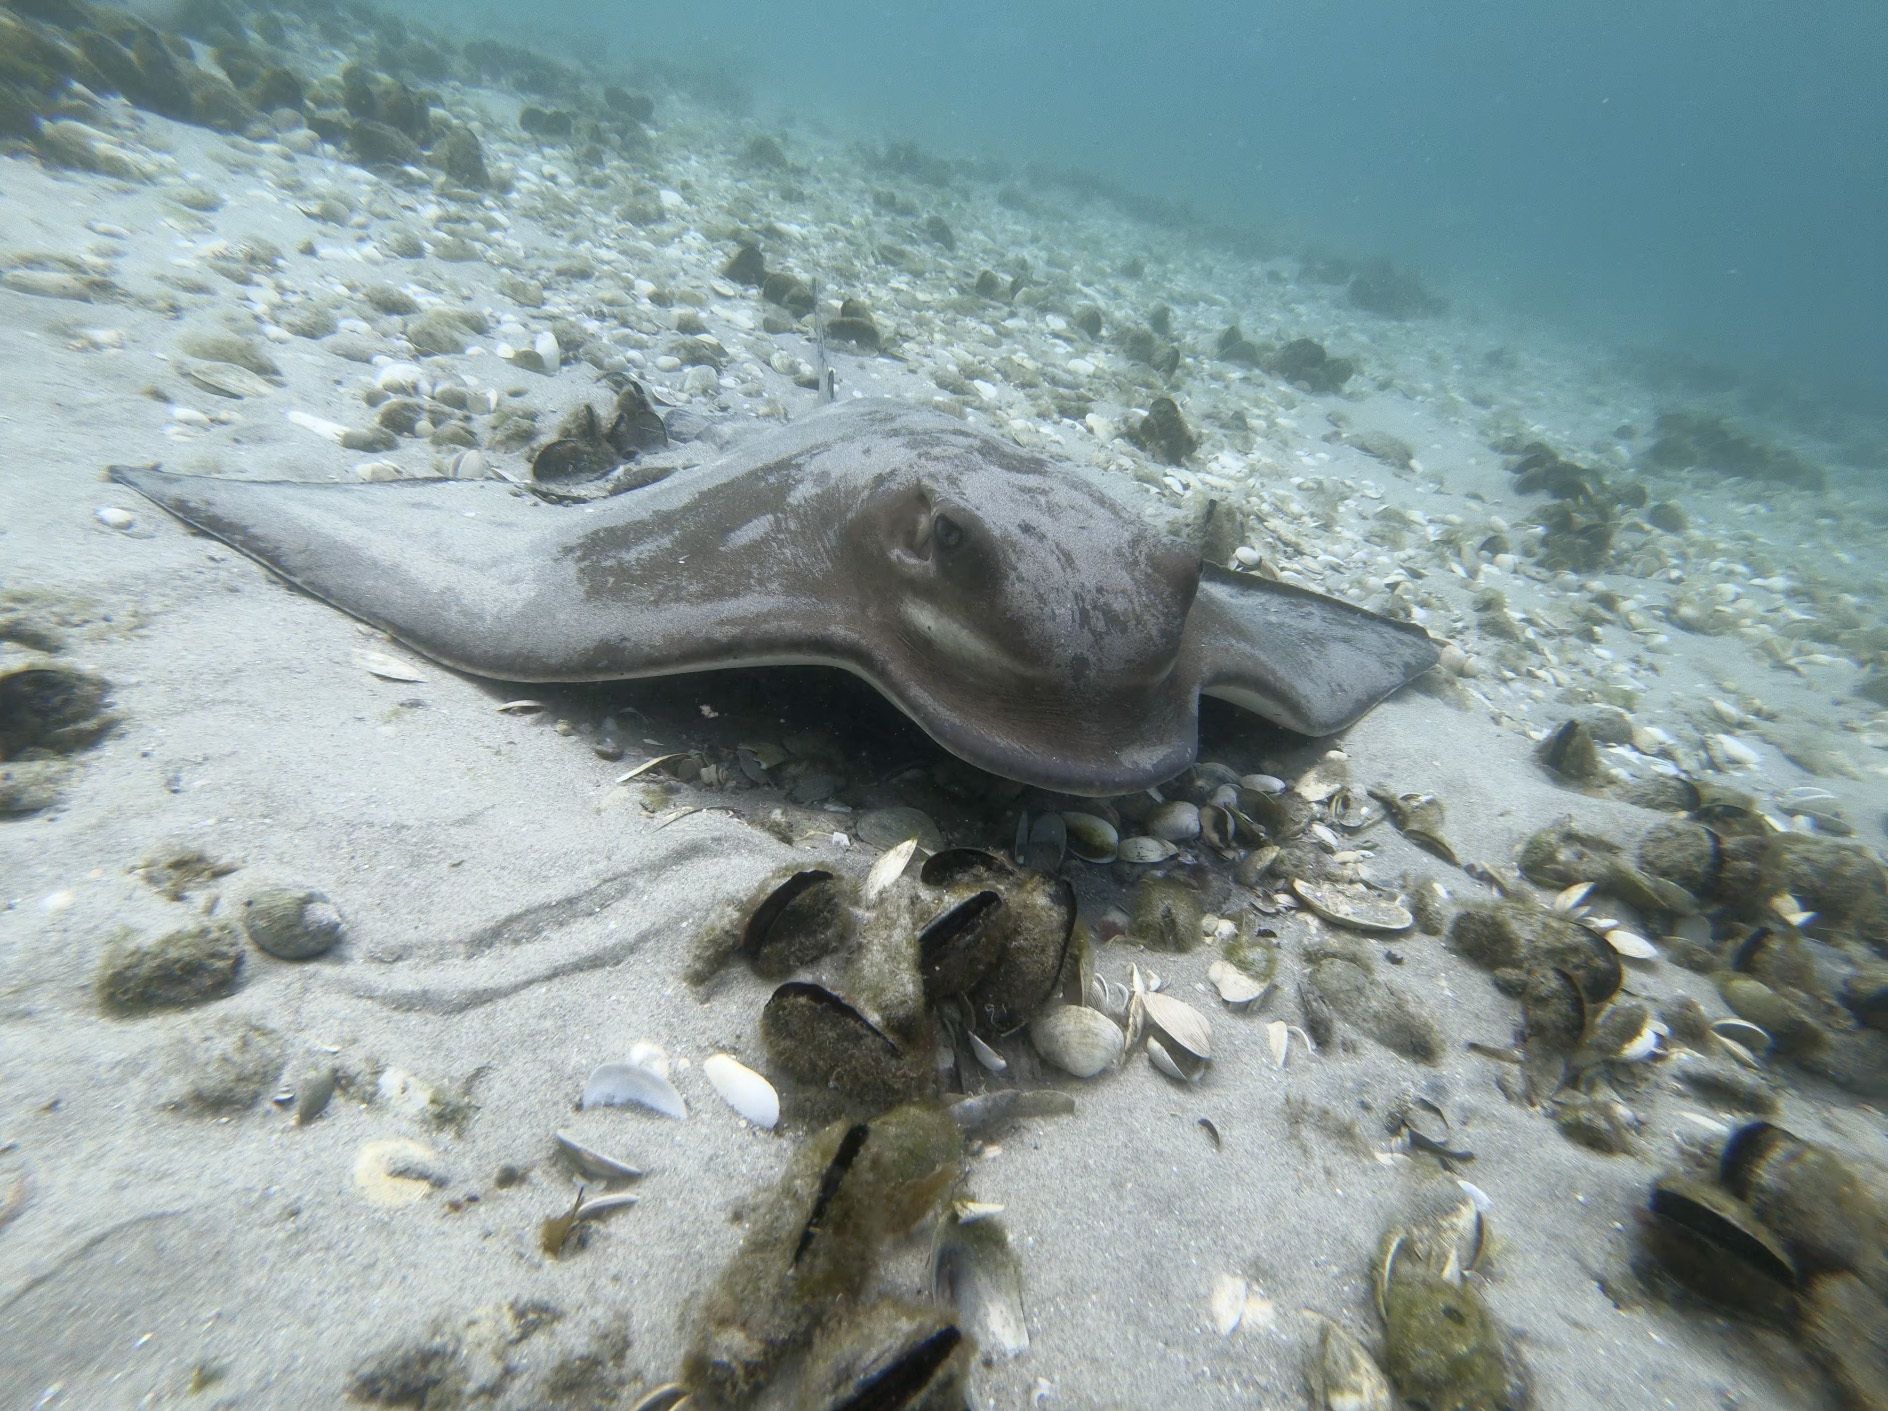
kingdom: Animalia
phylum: Chordata
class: Elasmobranchii
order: Myliobatiformes
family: Myliobatidae
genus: Myliobatis
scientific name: Myliobatis tenuicaudatus
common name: Eagle ray
